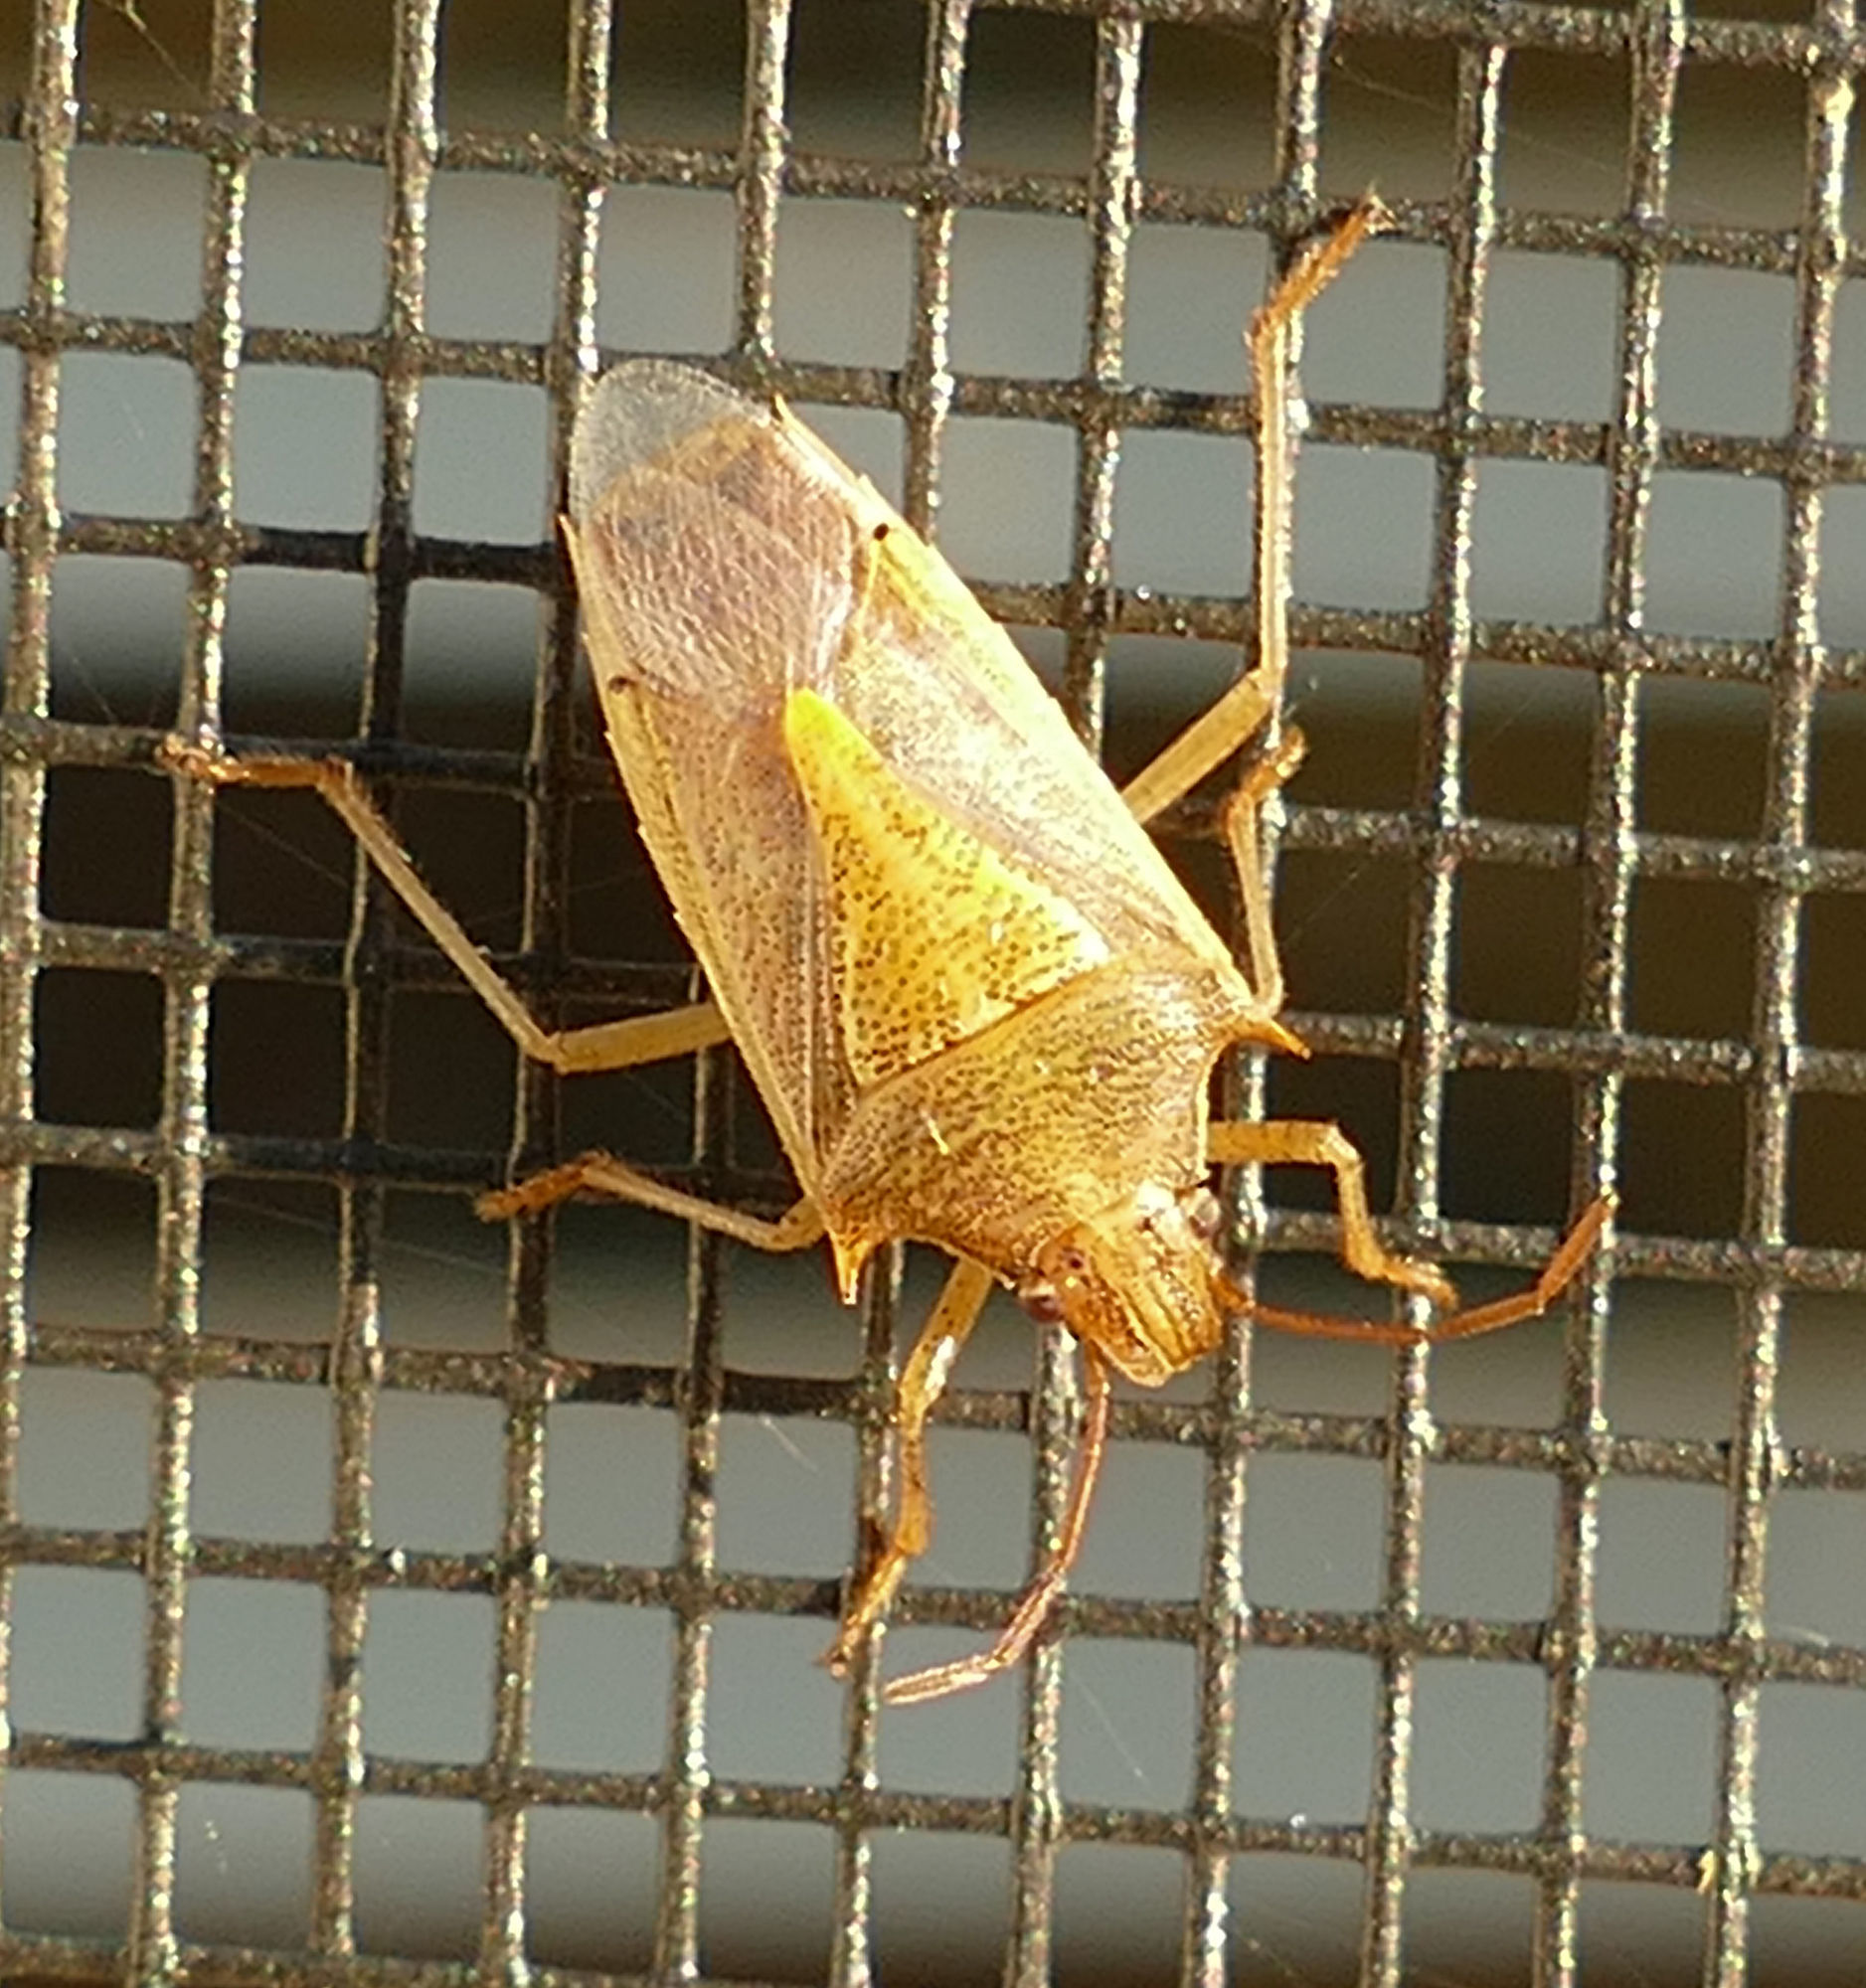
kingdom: Animalia
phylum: Arthropoda
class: Insecta
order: Hemiptera
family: Pentatomidae
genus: Oebalus
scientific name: Oebalus pugnax
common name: Rice stink bug
